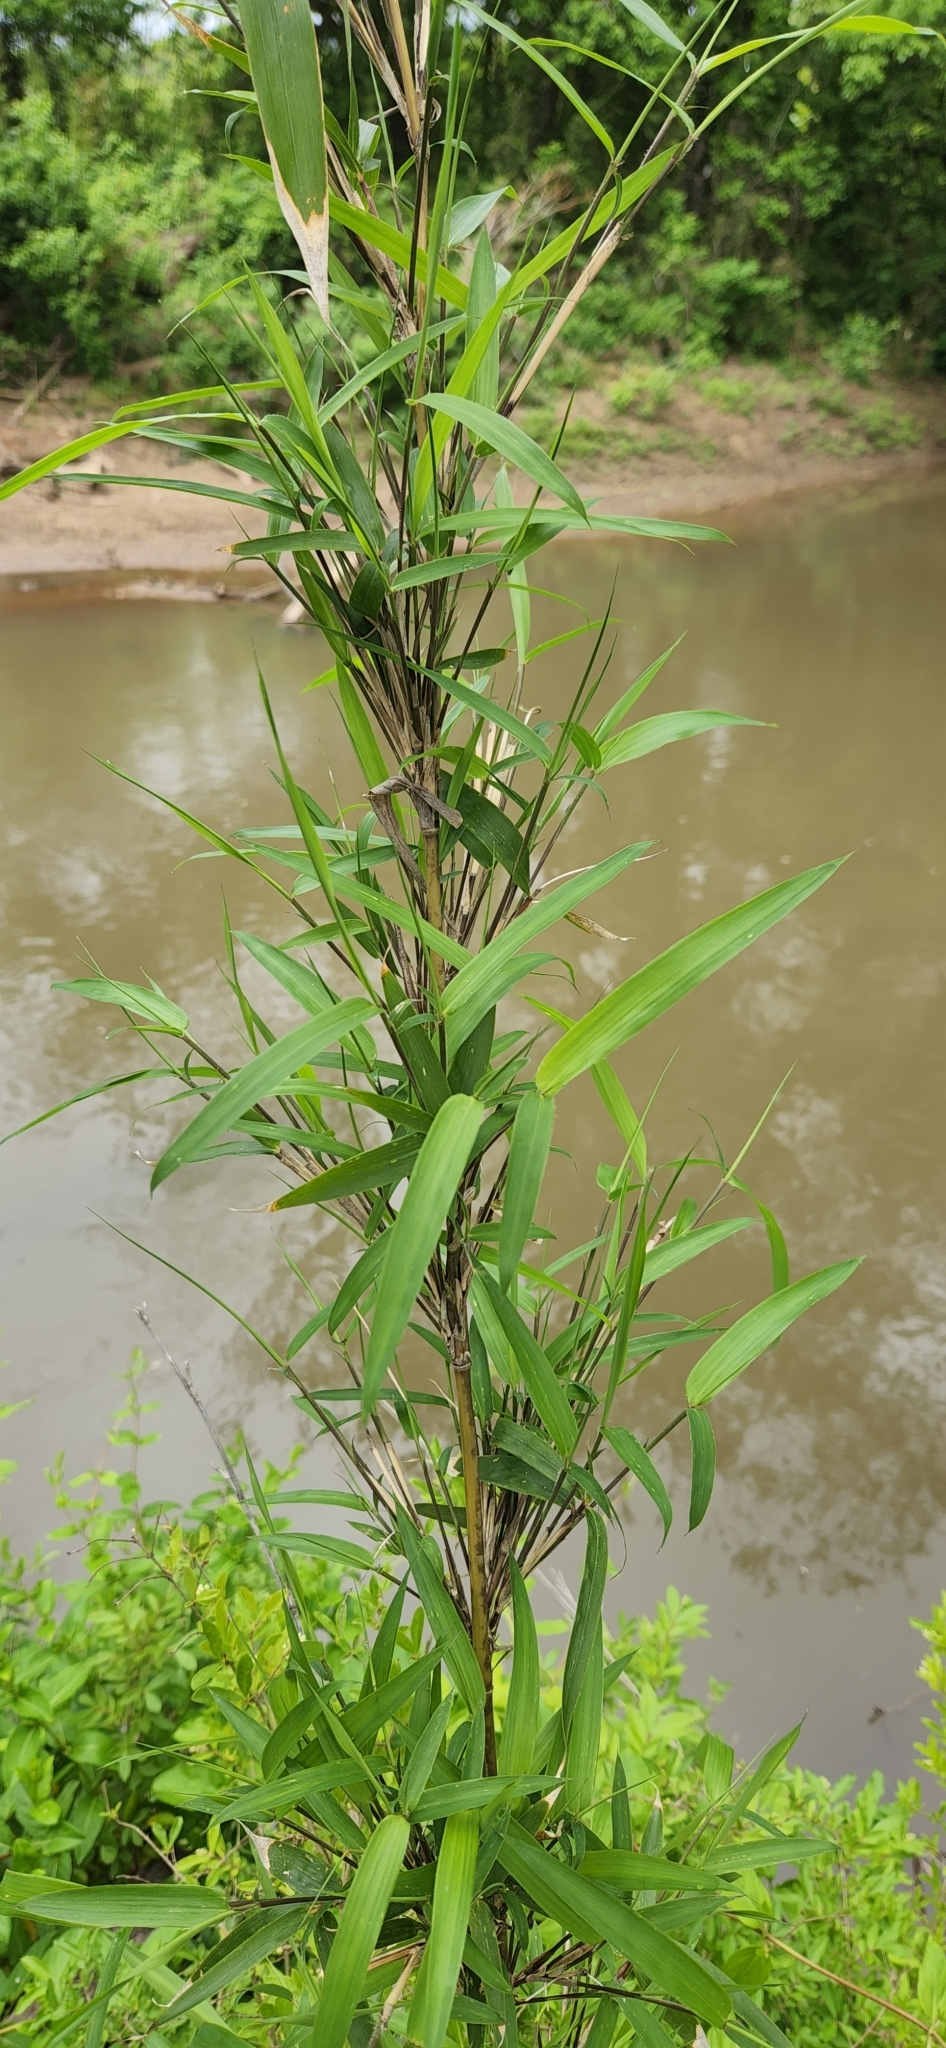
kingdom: Plantae
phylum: Tracheophyta
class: Liliopsida
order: Poales
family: Poaceae
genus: Arundinaria
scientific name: Arundinaria gigantea
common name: Giant cane
